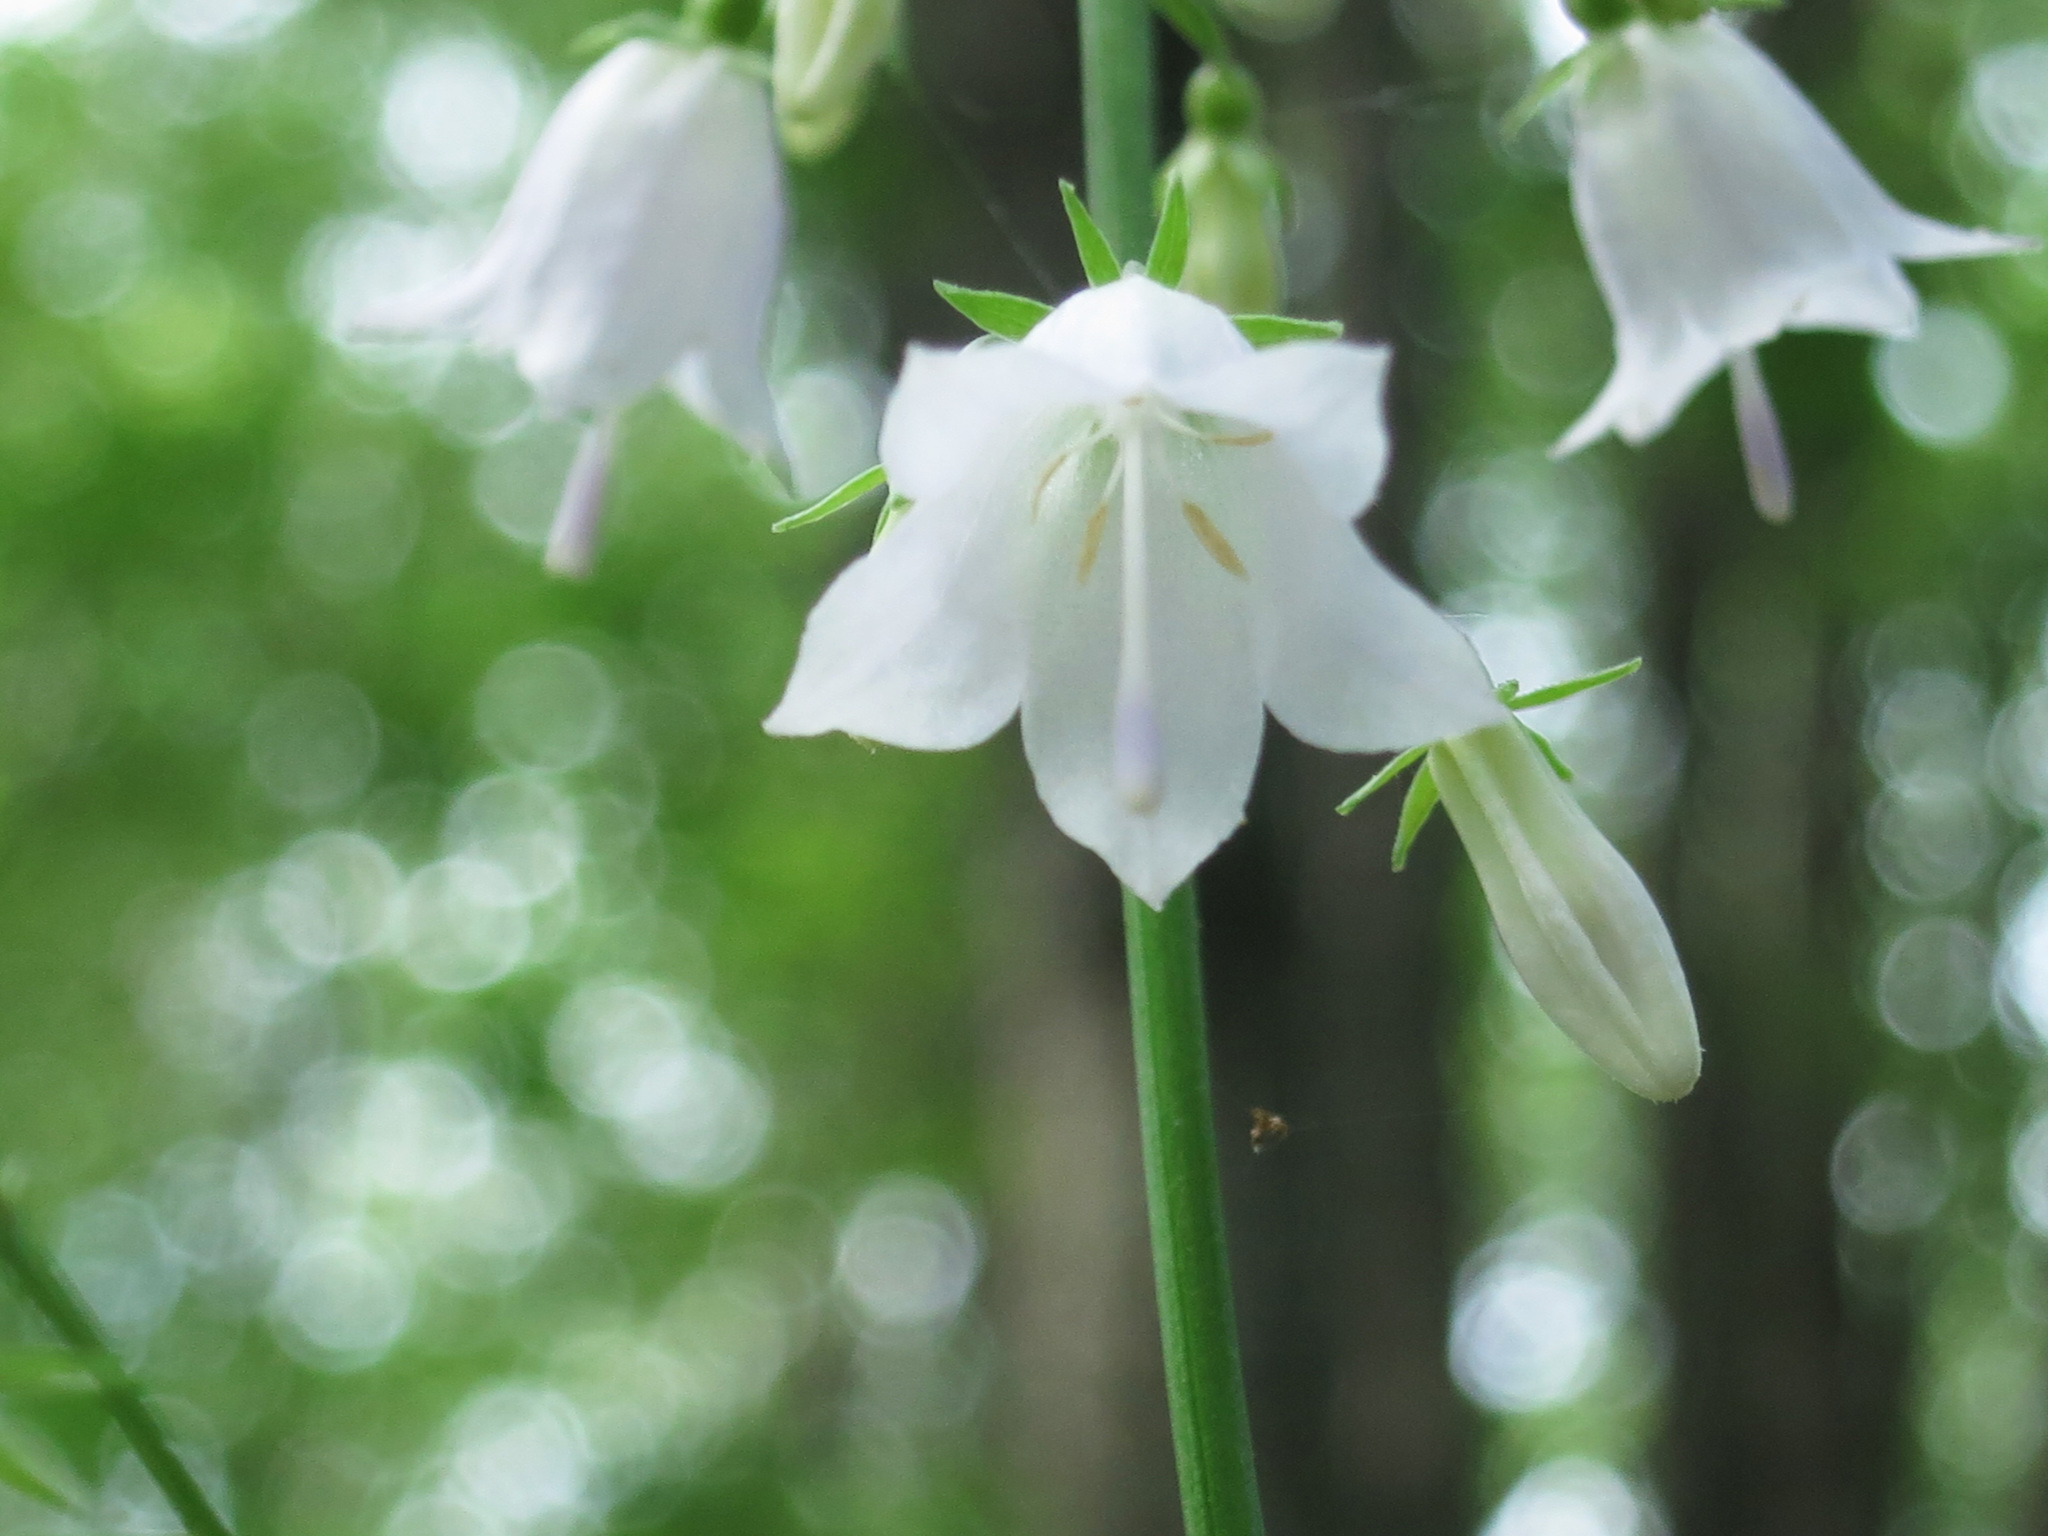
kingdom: Plantae
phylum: Tracheophyta
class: Magnoliopsida
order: Asterales
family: Campanulaceae
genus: Adenophora
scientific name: Adenophora pereskiifolia
